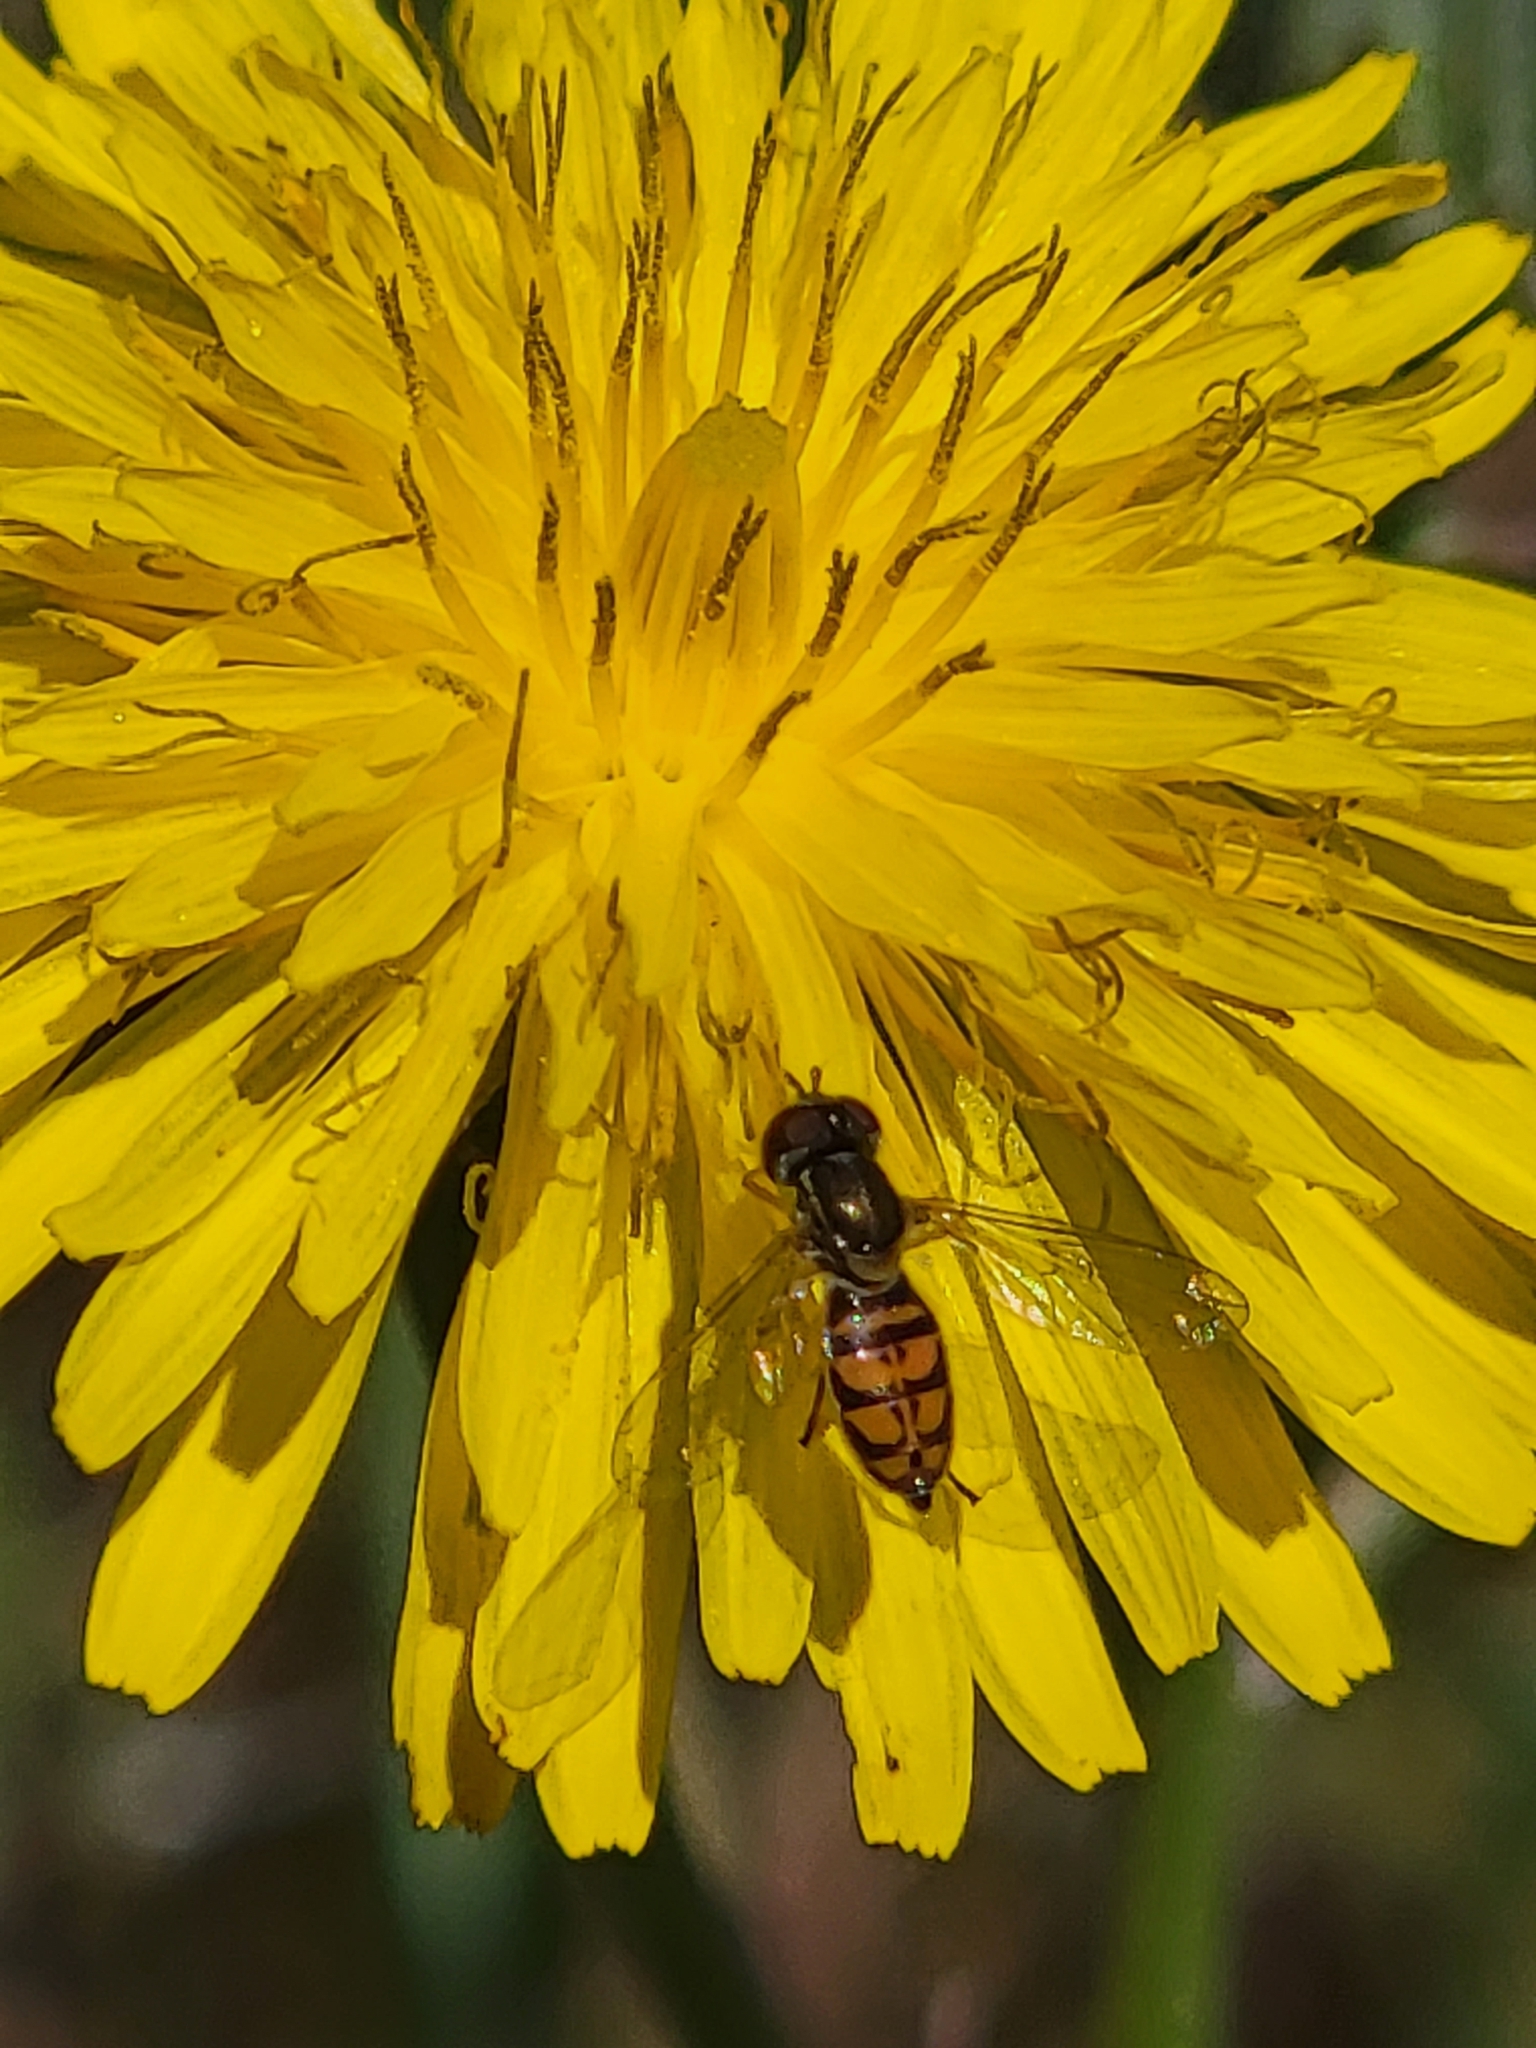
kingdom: Animalia
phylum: Arthropoda
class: Insecta
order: Diptera
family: Syrphidae
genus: Toxomerus
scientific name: Toxomerus marginatus
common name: Syrphid fly
